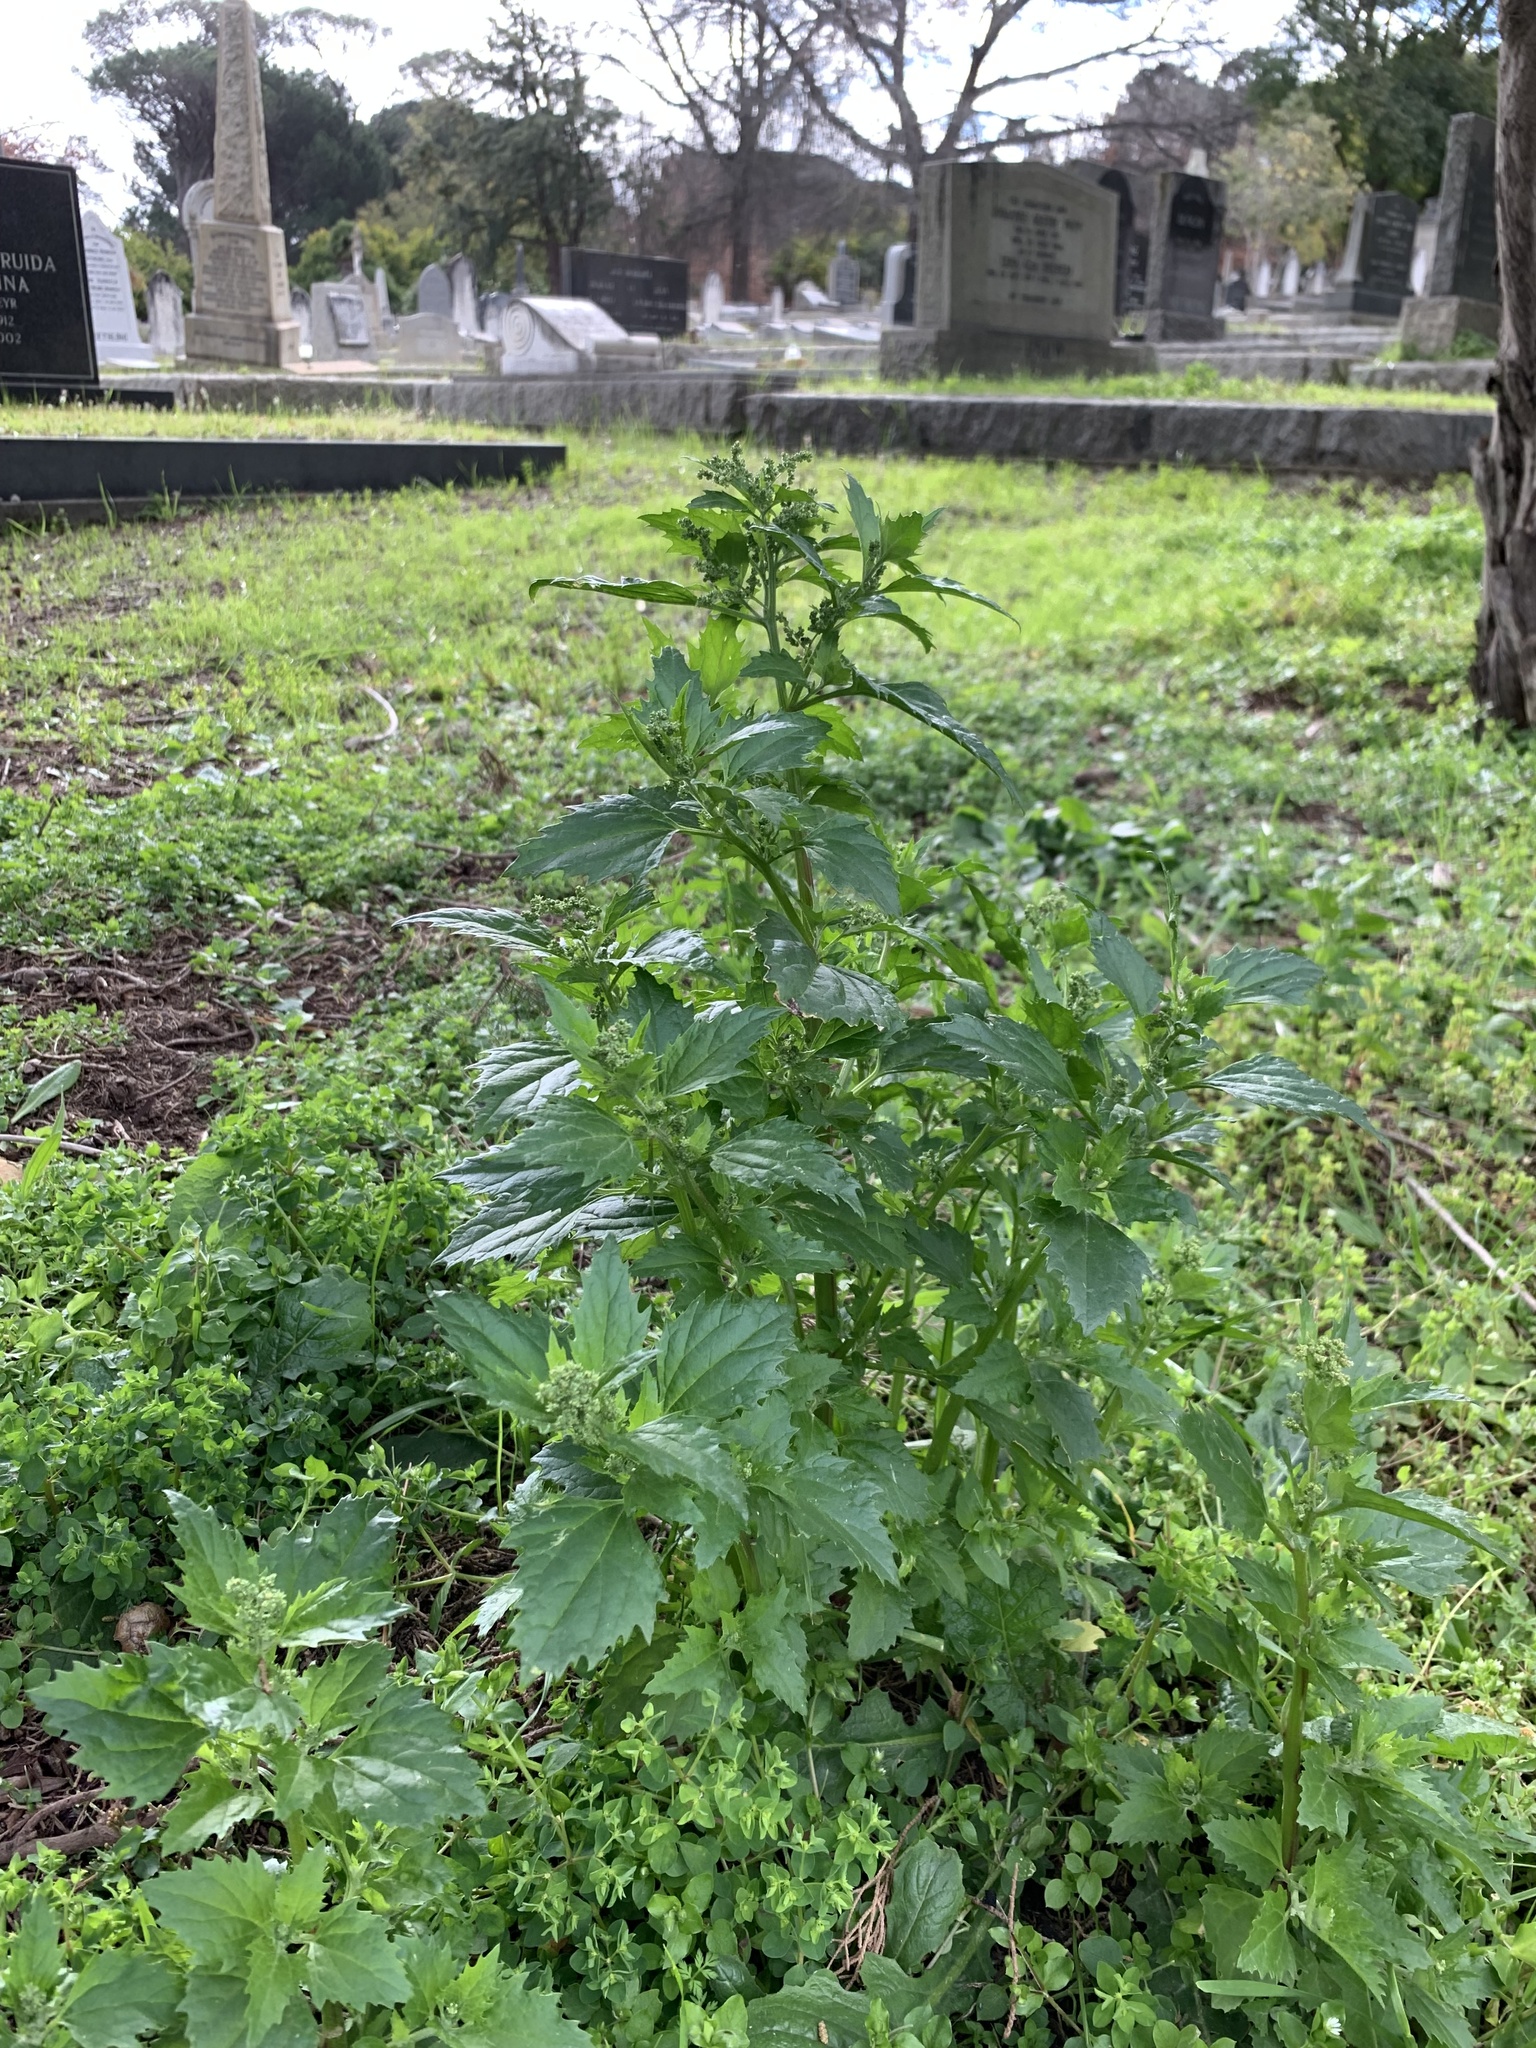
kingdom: Plantae
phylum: Tracheophyta
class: Magnoliopsida
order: Caryophyllales
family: Amaranthaceae
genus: Chenopodiastrum
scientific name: Chenopodiastrum murale
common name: Sowbane
